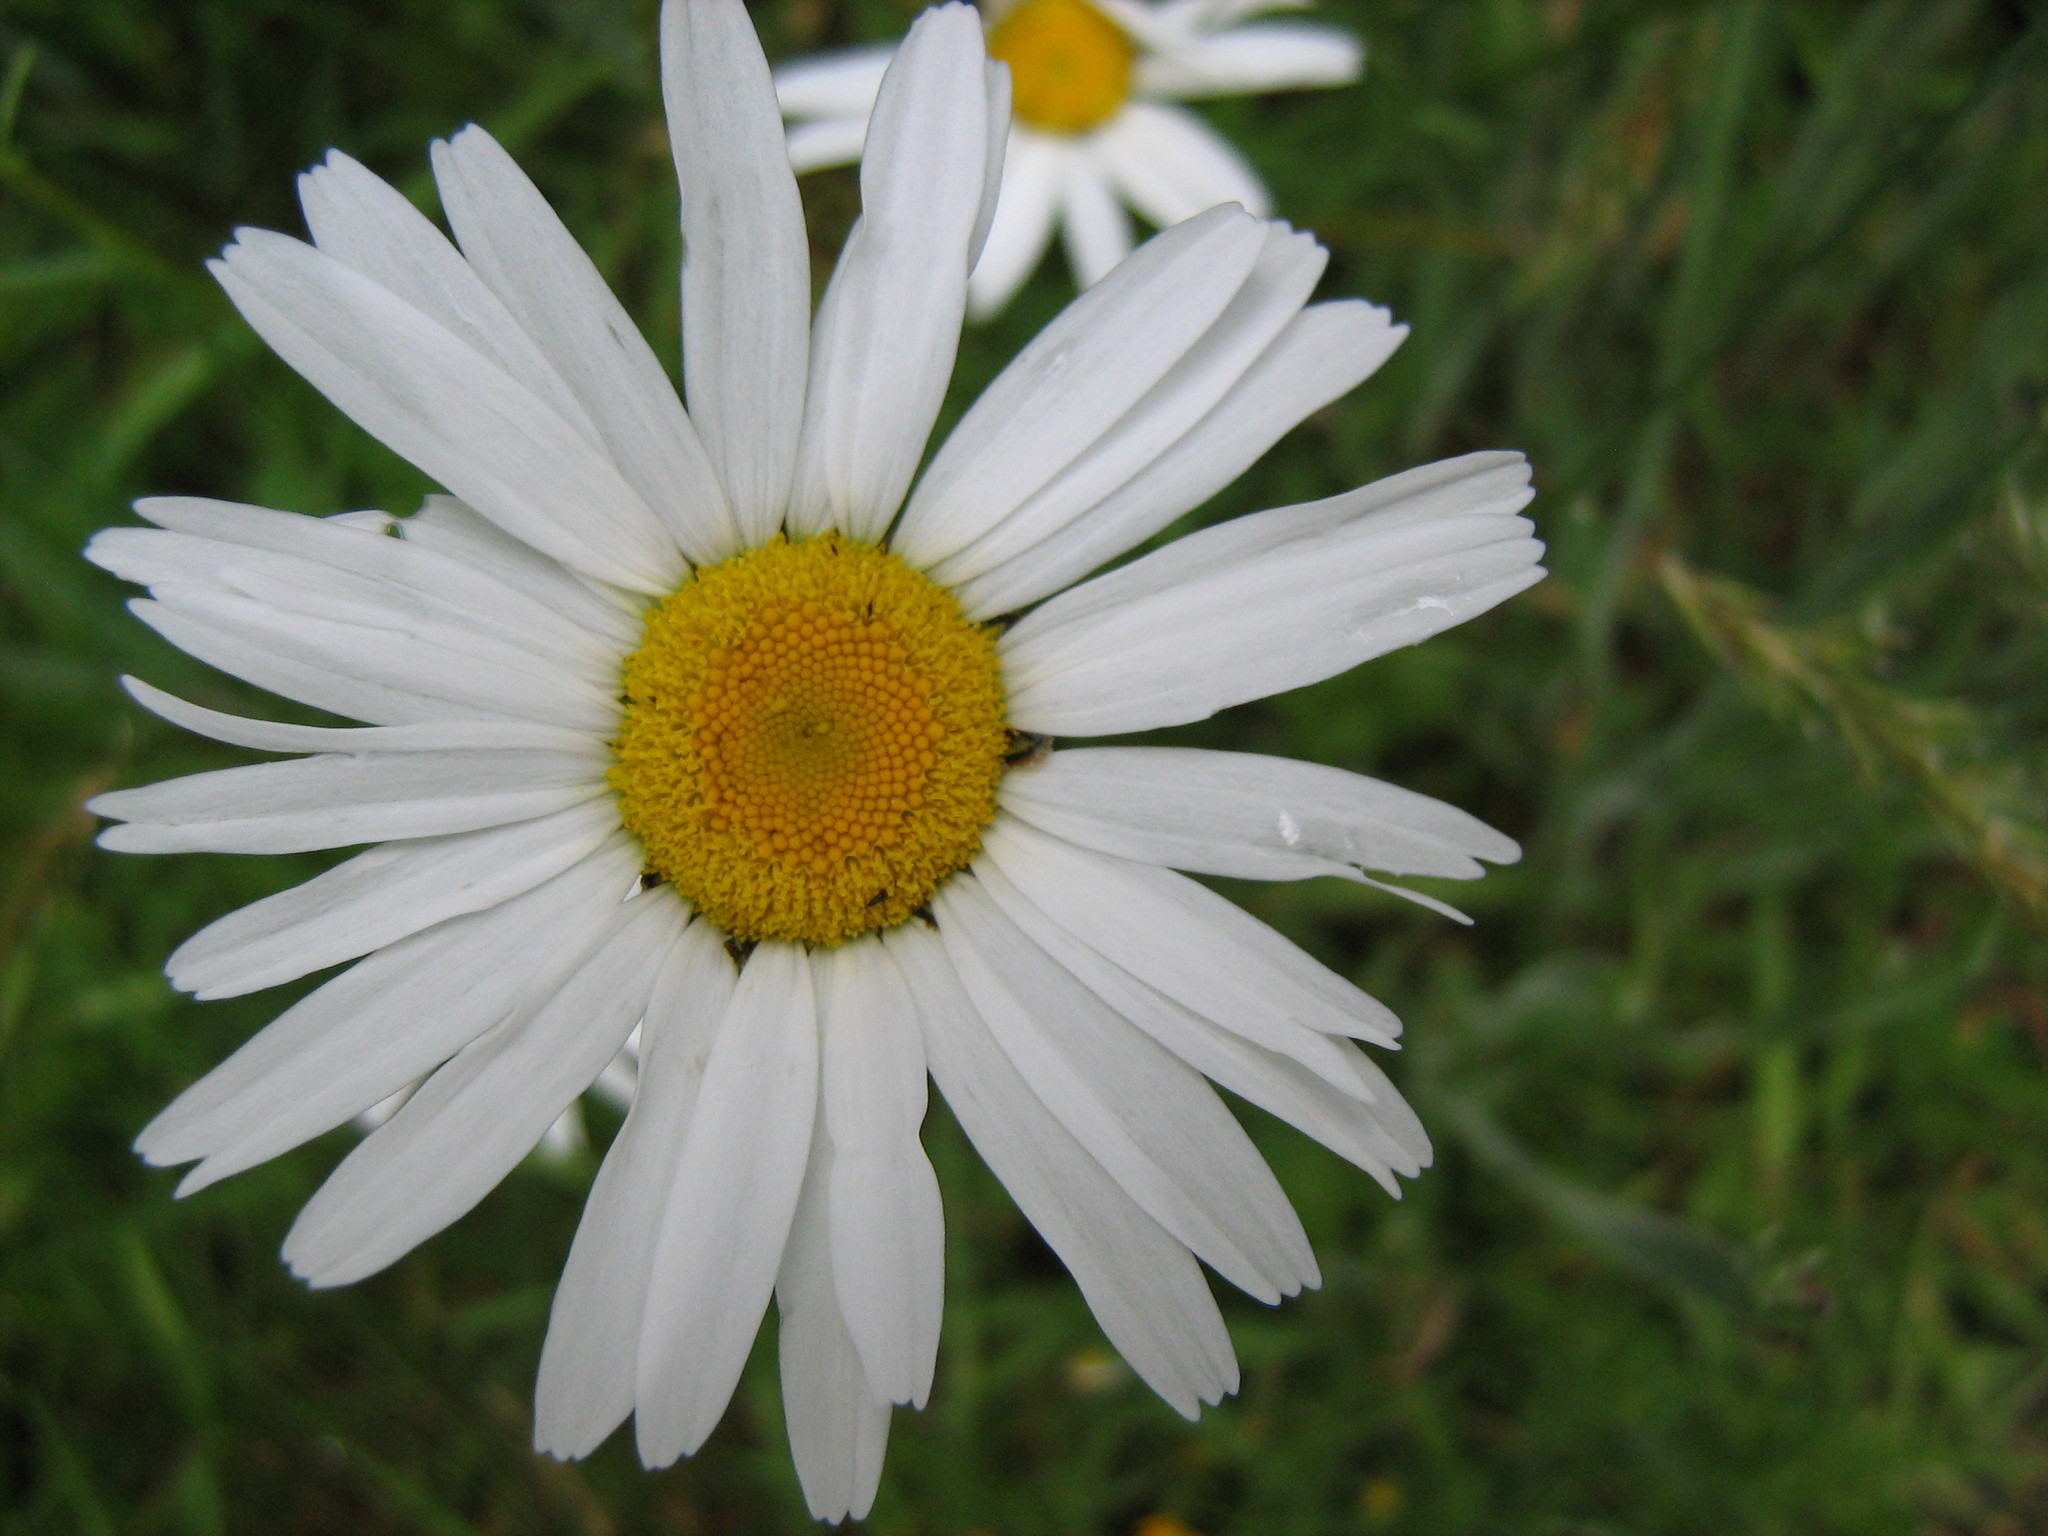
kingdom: Plantae
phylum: Tracheophyta
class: Magnoliopsida
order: Asterales
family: Asteraceae
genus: Leucanthemum
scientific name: Leucanthemum vulgare
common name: Oxeye daisy
